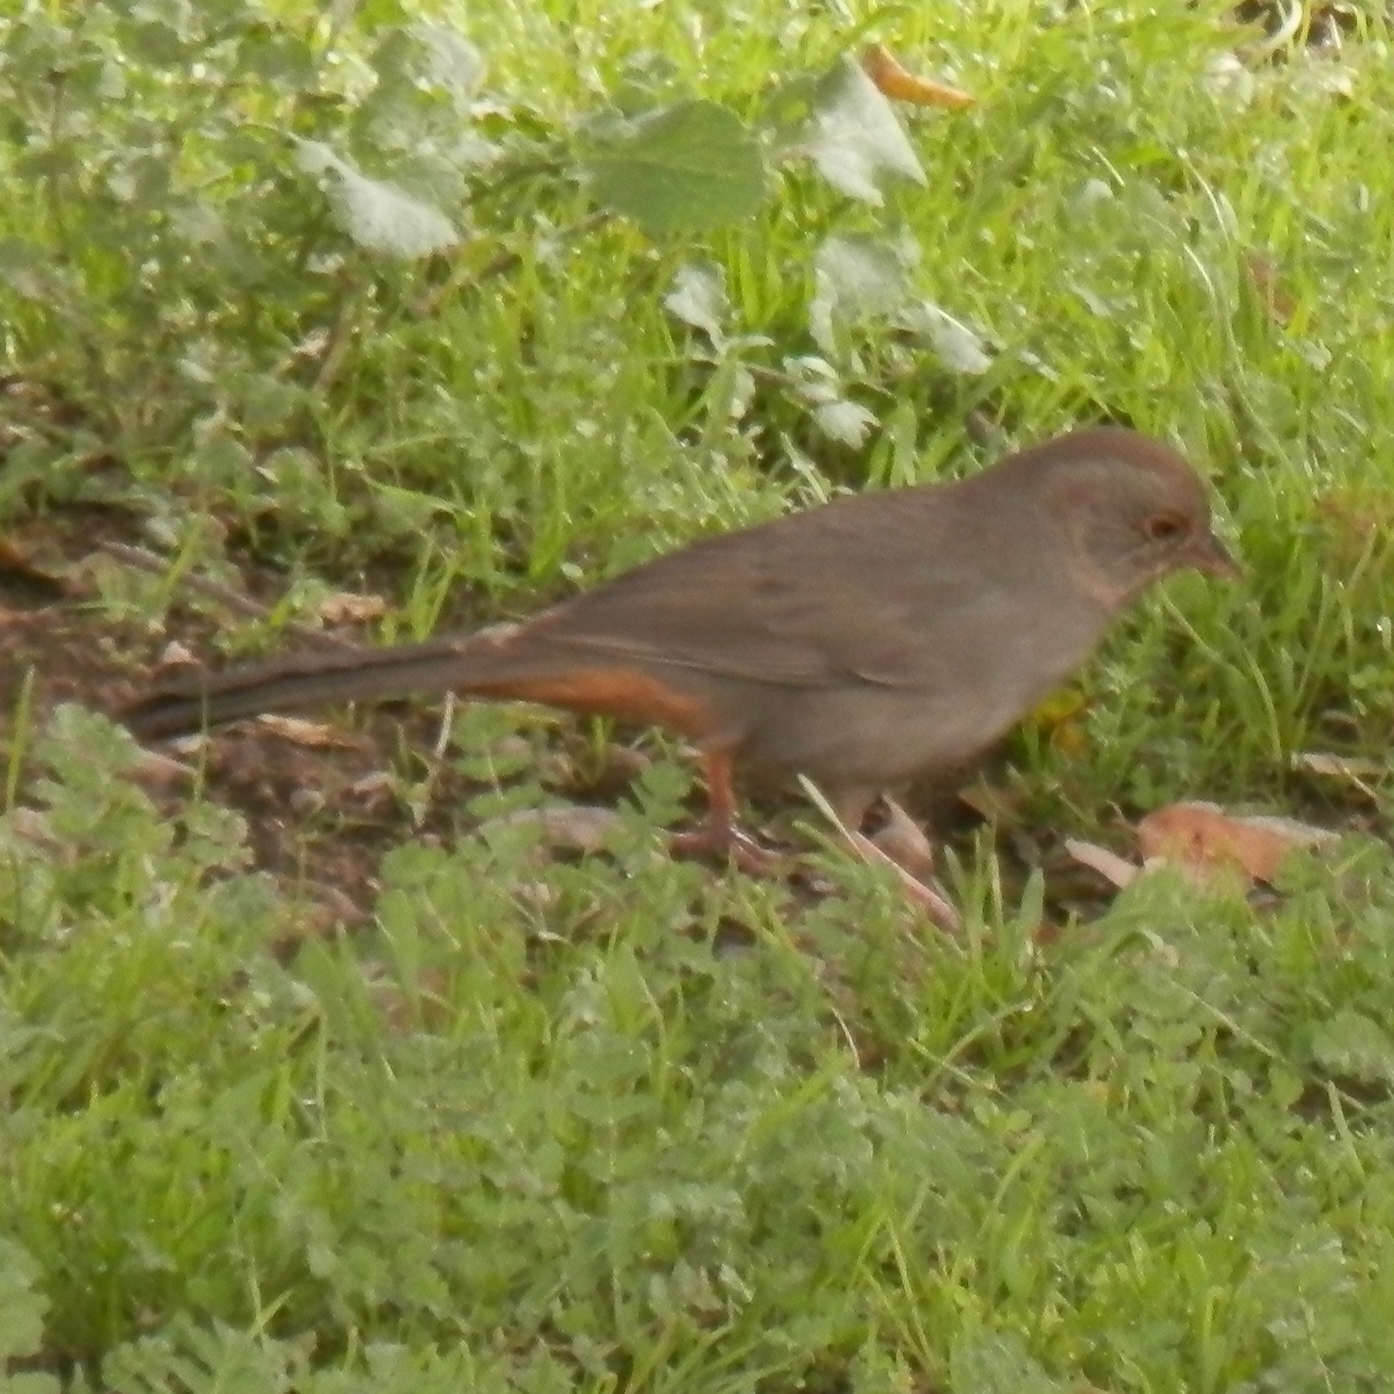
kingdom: Animalia
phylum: Chordata
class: Aves
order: Passeriformes
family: Passerellidae
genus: Melozone
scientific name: Melozone crissalis
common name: California towhee
